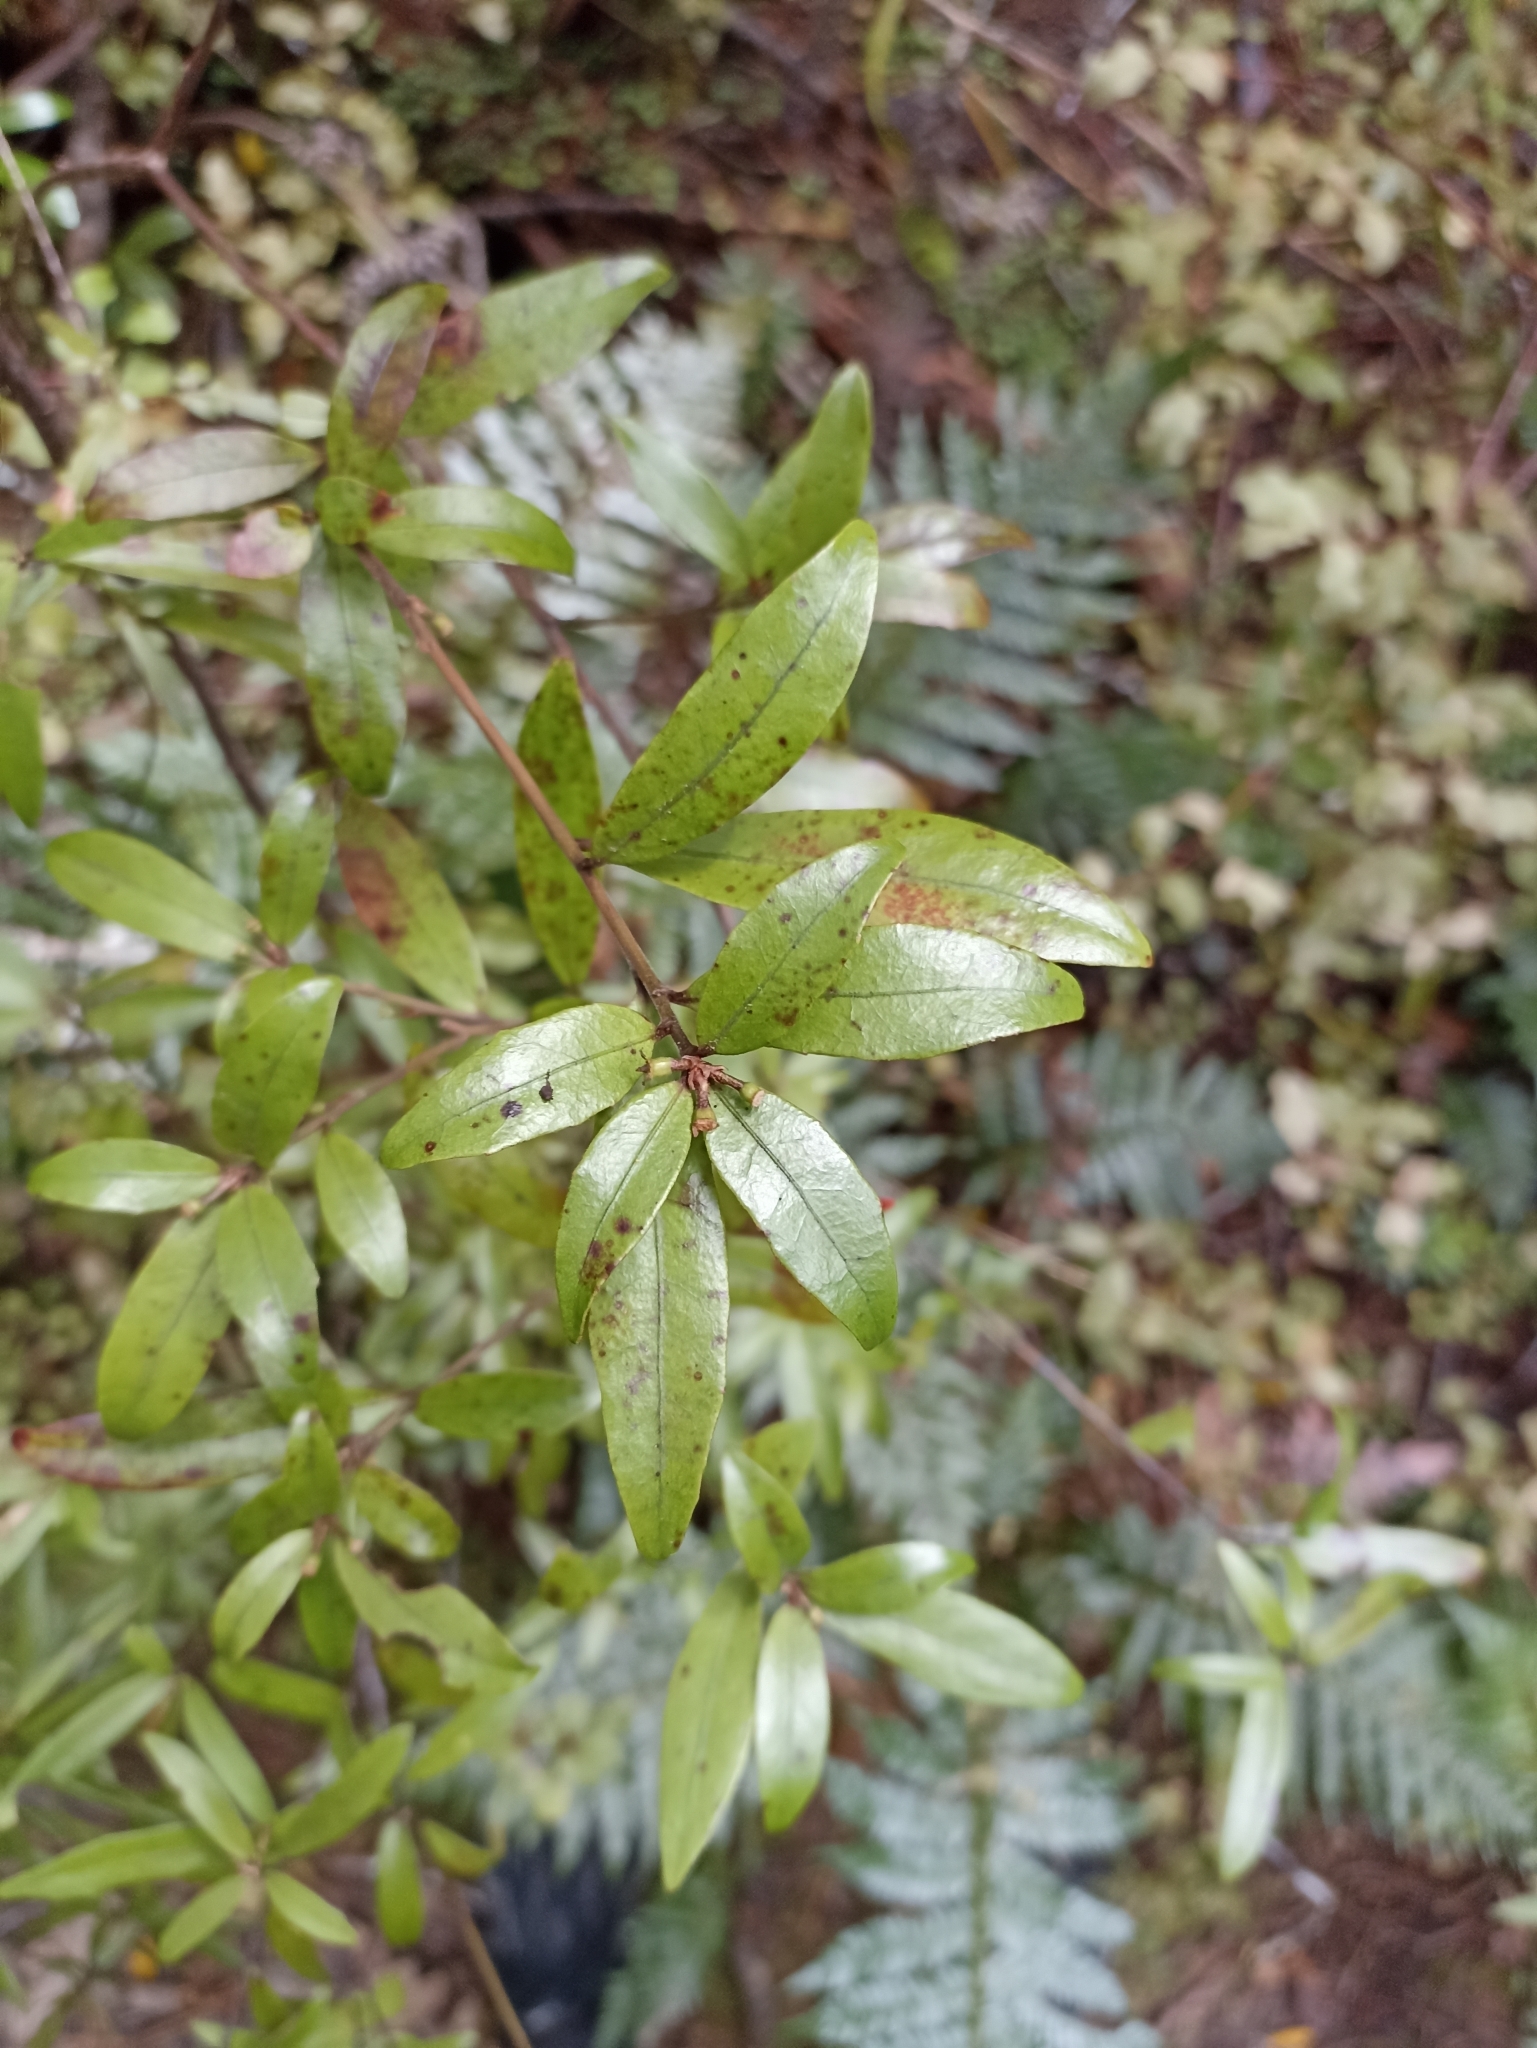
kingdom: Plantae
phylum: Tracheophyta
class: Magnoliopsida
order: Asterales
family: Alseuosmiaceae
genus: Alseuosmia
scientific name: Alseuosmia banksii
